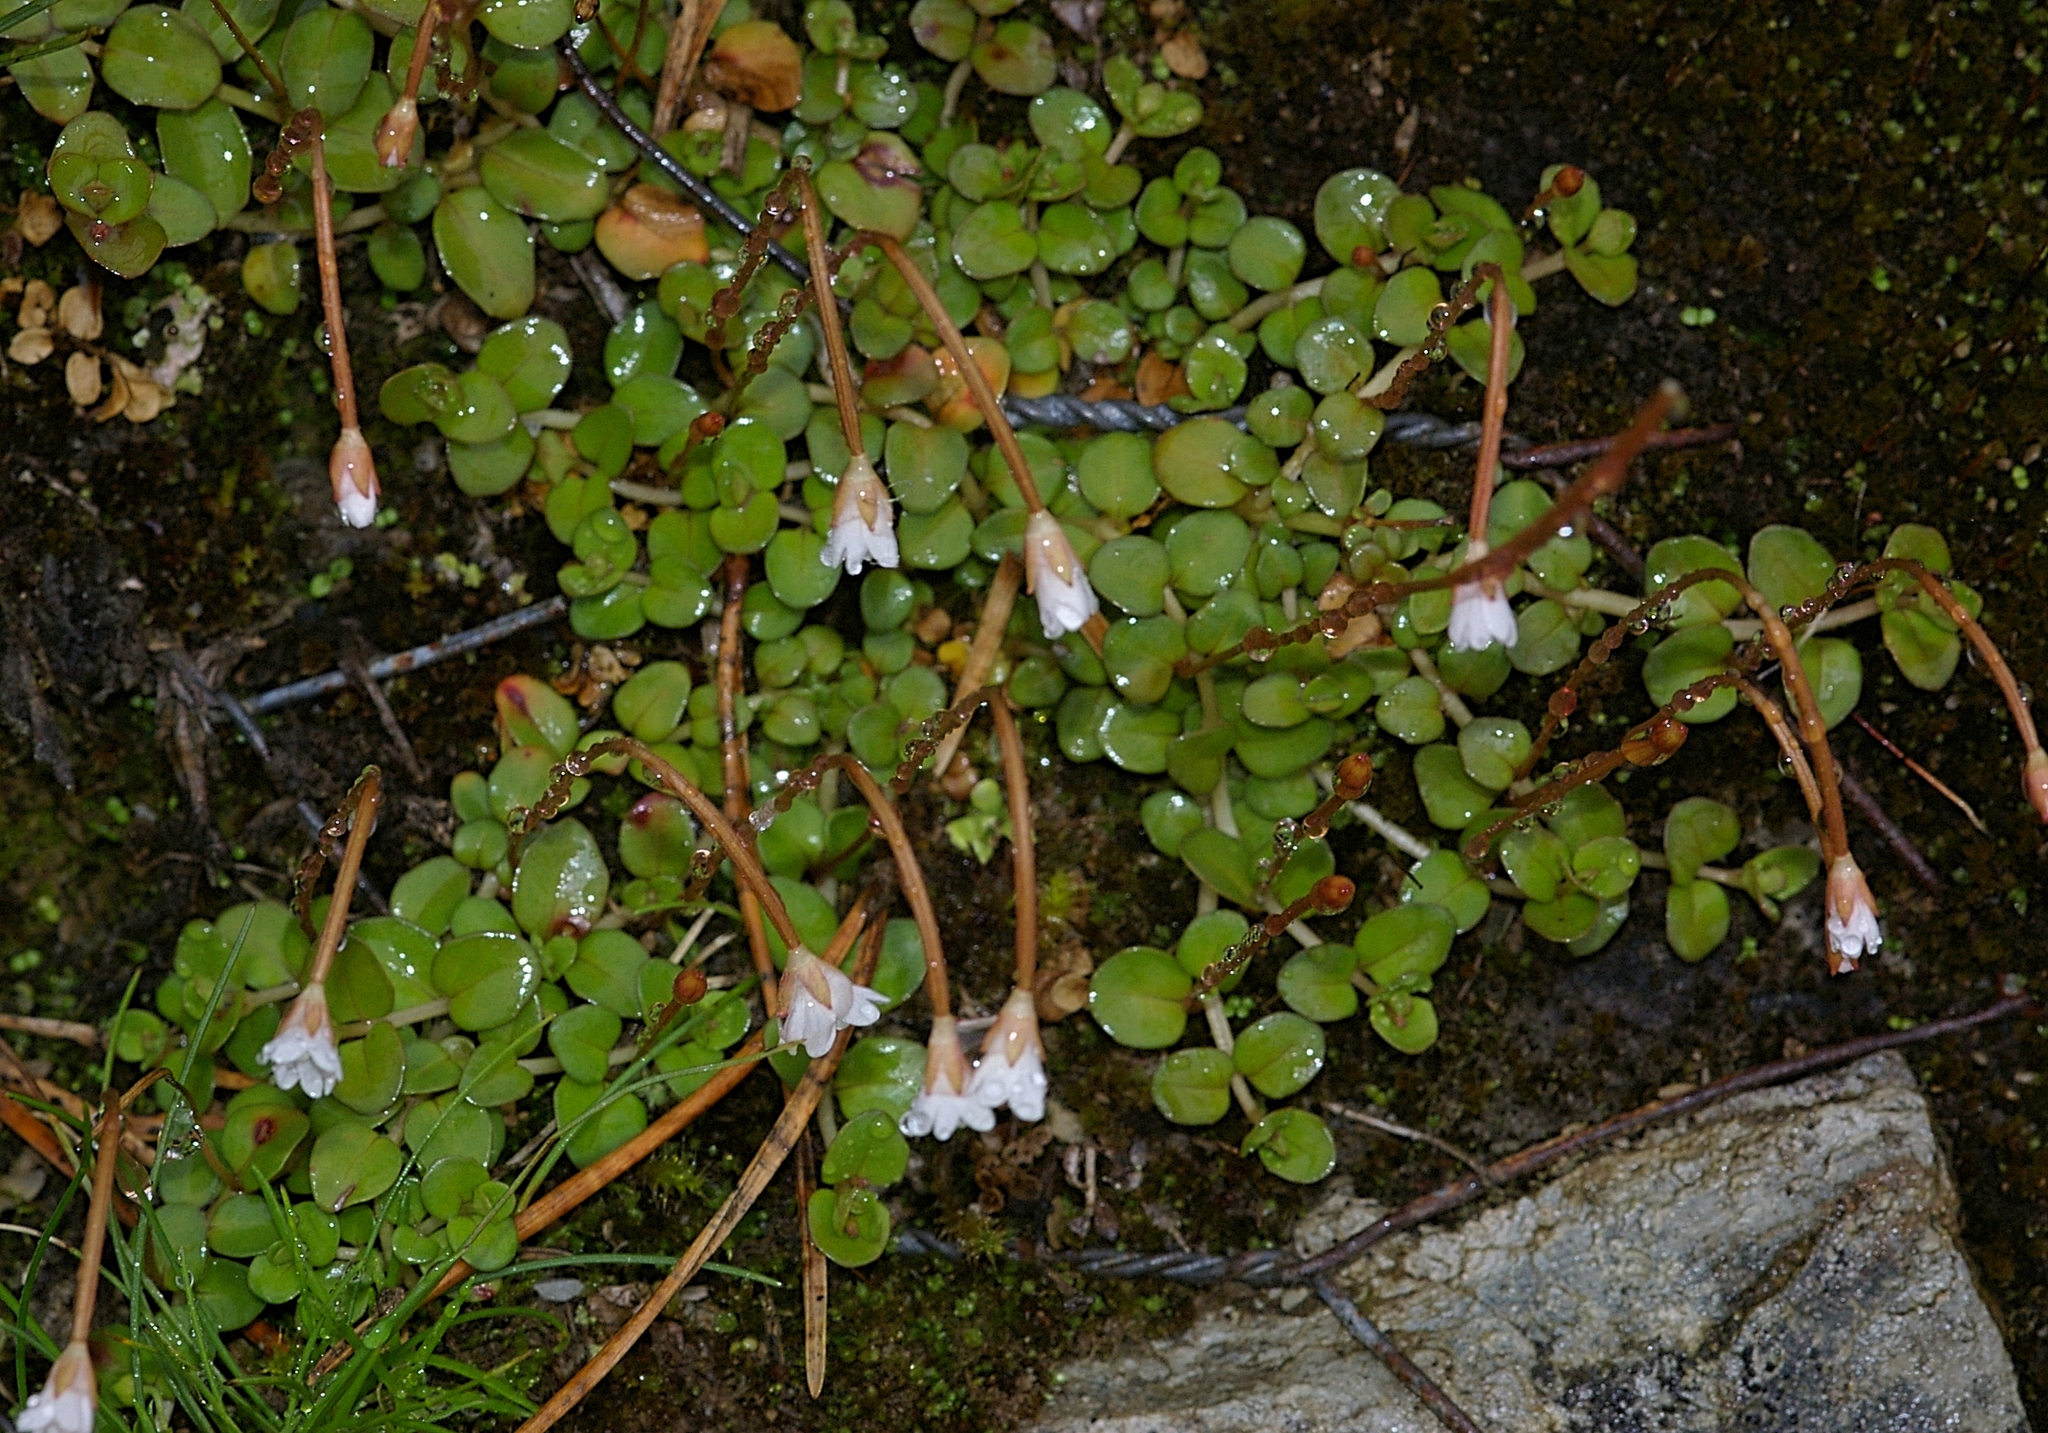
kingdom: Plantae
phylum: Tracheophyta
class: Magnoliopsida
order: Myrtales
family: Onagraceae
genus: Epilobium
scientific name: Epilobium brunnescens
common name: New zealand willowherb
